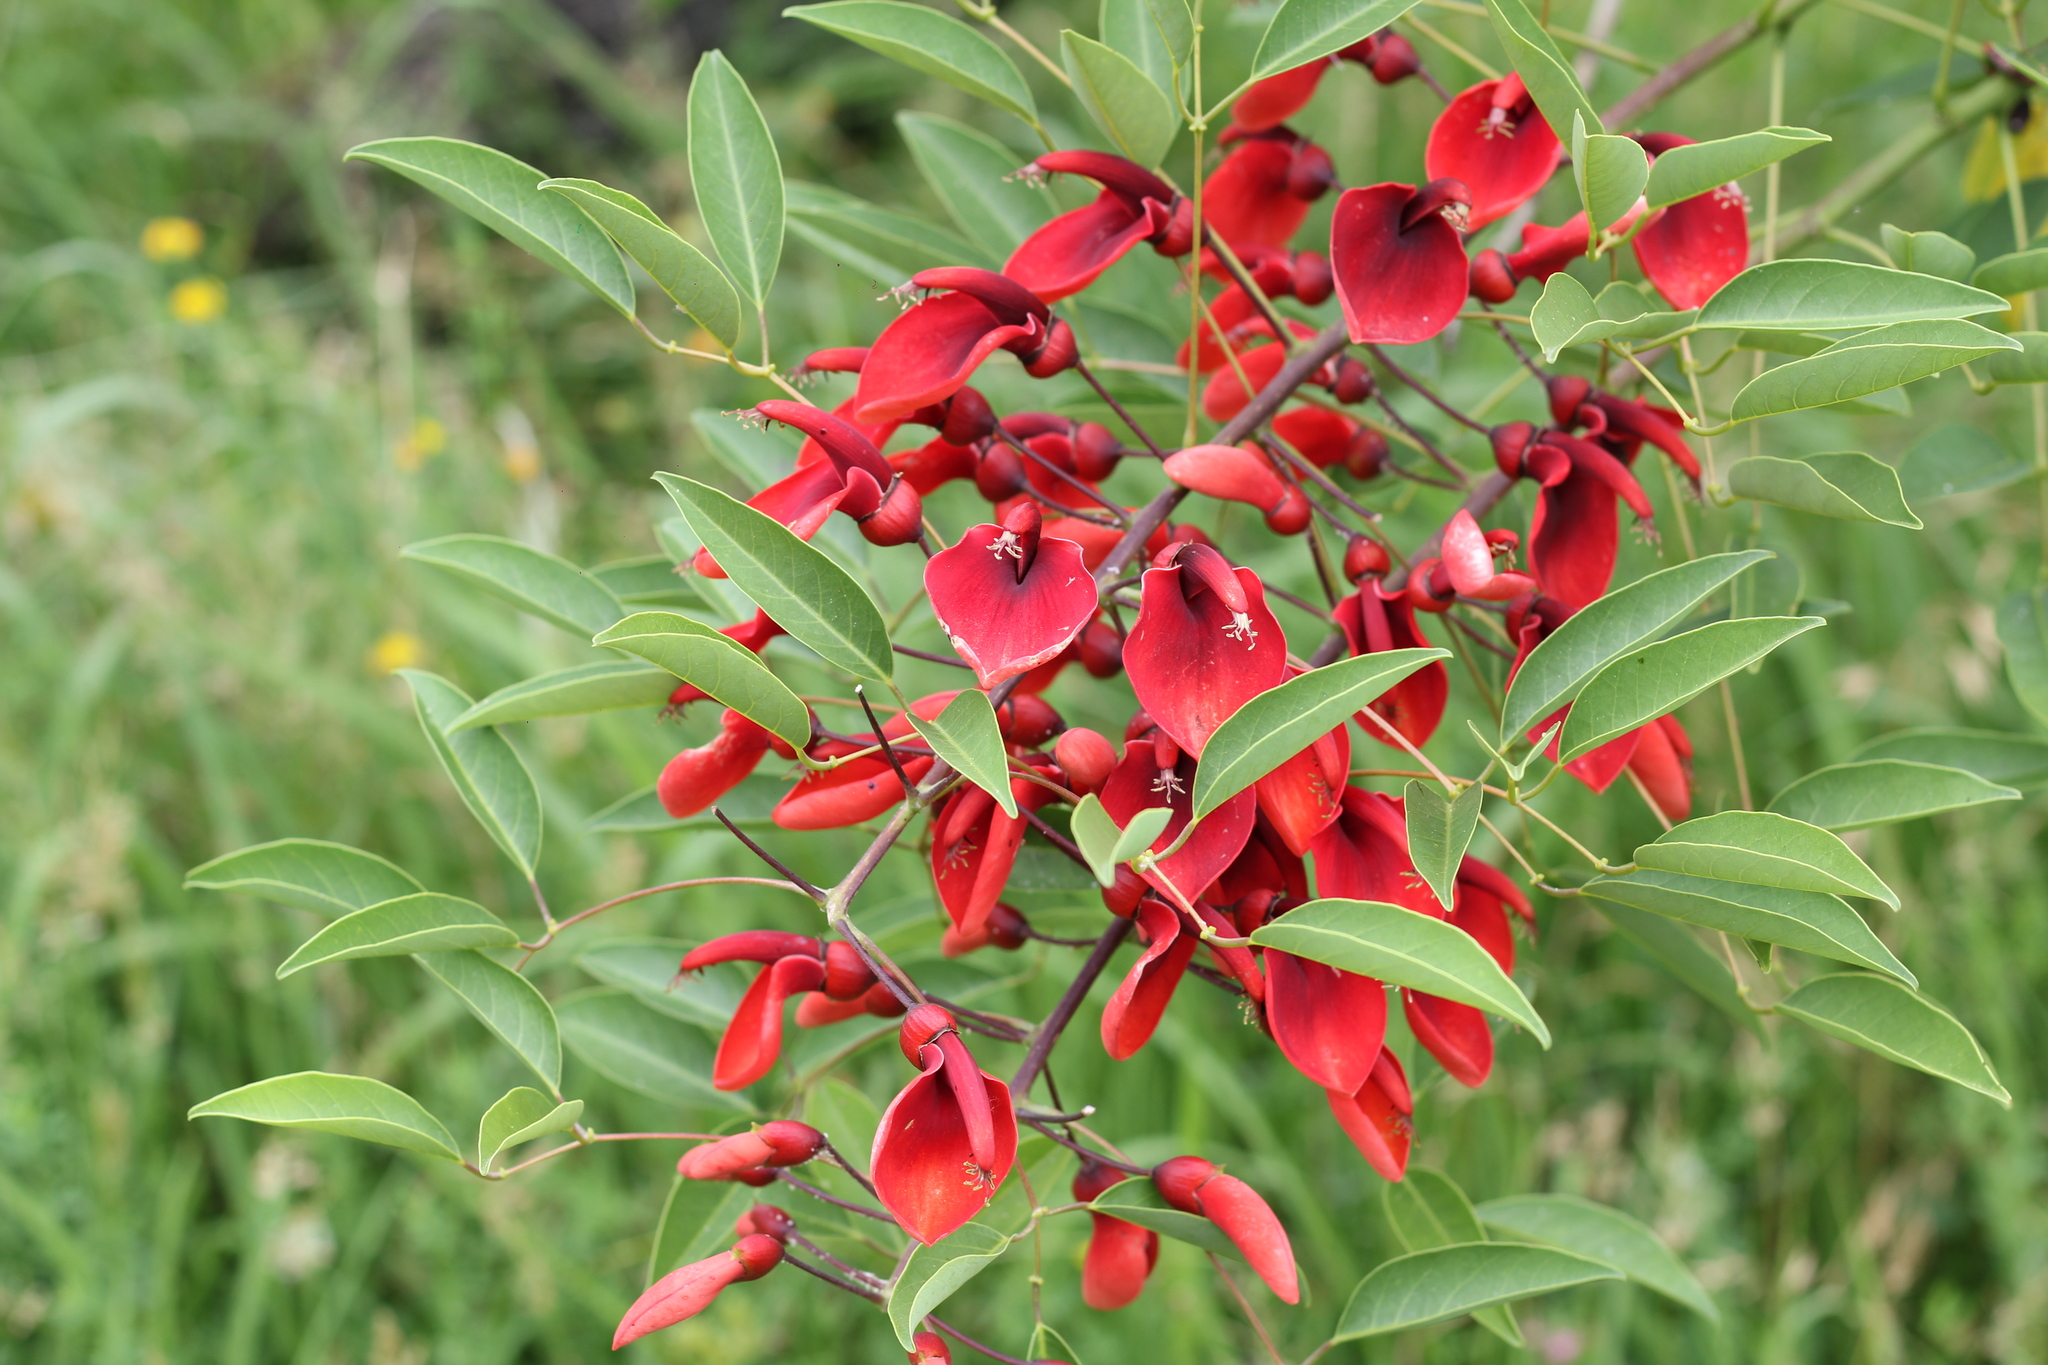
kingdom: Plantae
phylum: Tracheophyta
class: Magnoliopsida
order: Fabales
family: Fabaceae
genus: Erythrina
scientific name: Erythrina crista-galli
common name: Cockspur coral tree
